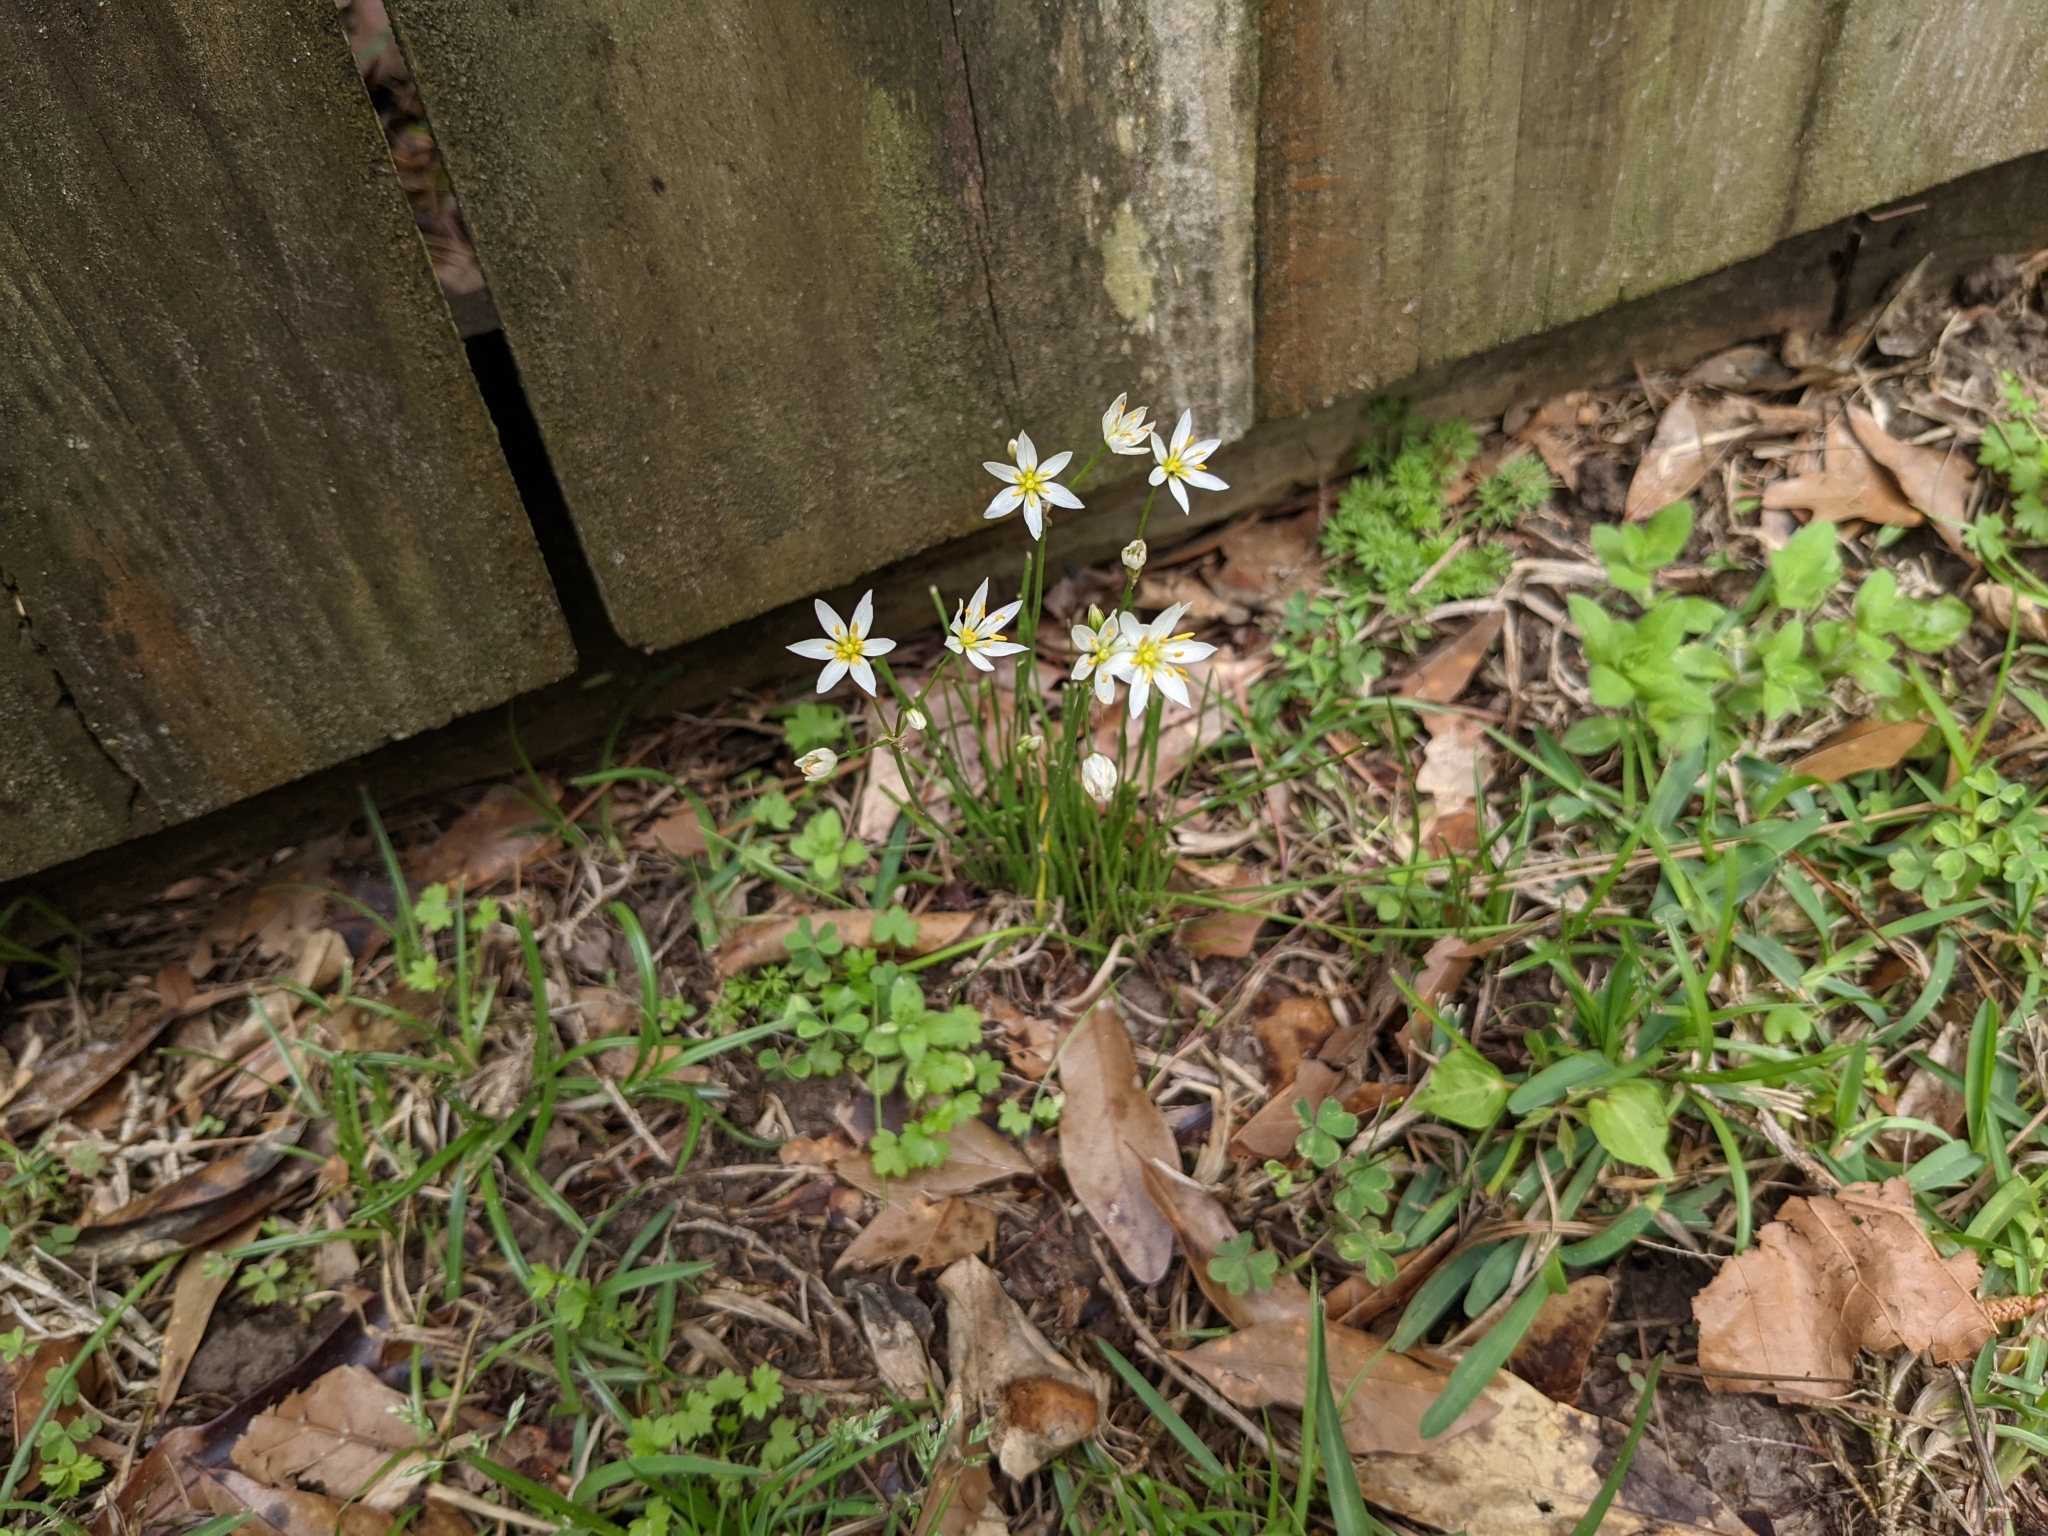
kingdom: Plantae
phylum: Tracheophyta
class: Liliopsida
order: Asparagales
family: Amaryllidaceae
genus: Nothoscordum
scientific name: Nothoscordum bivalve
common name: Crow-poison
